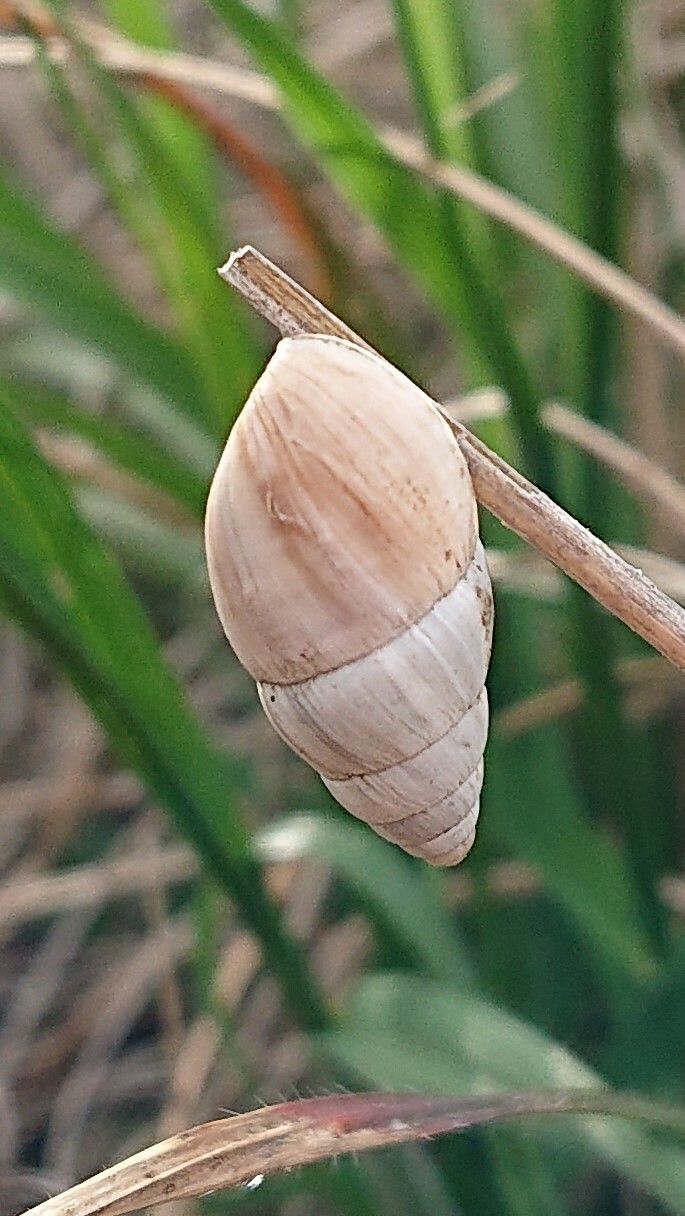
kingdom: Animalia
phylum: Mollusca
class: Gastropoda
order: Stylommatophora
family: Enidae
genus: Zebrina
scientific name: Zebrina detrita
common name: Large bulin
